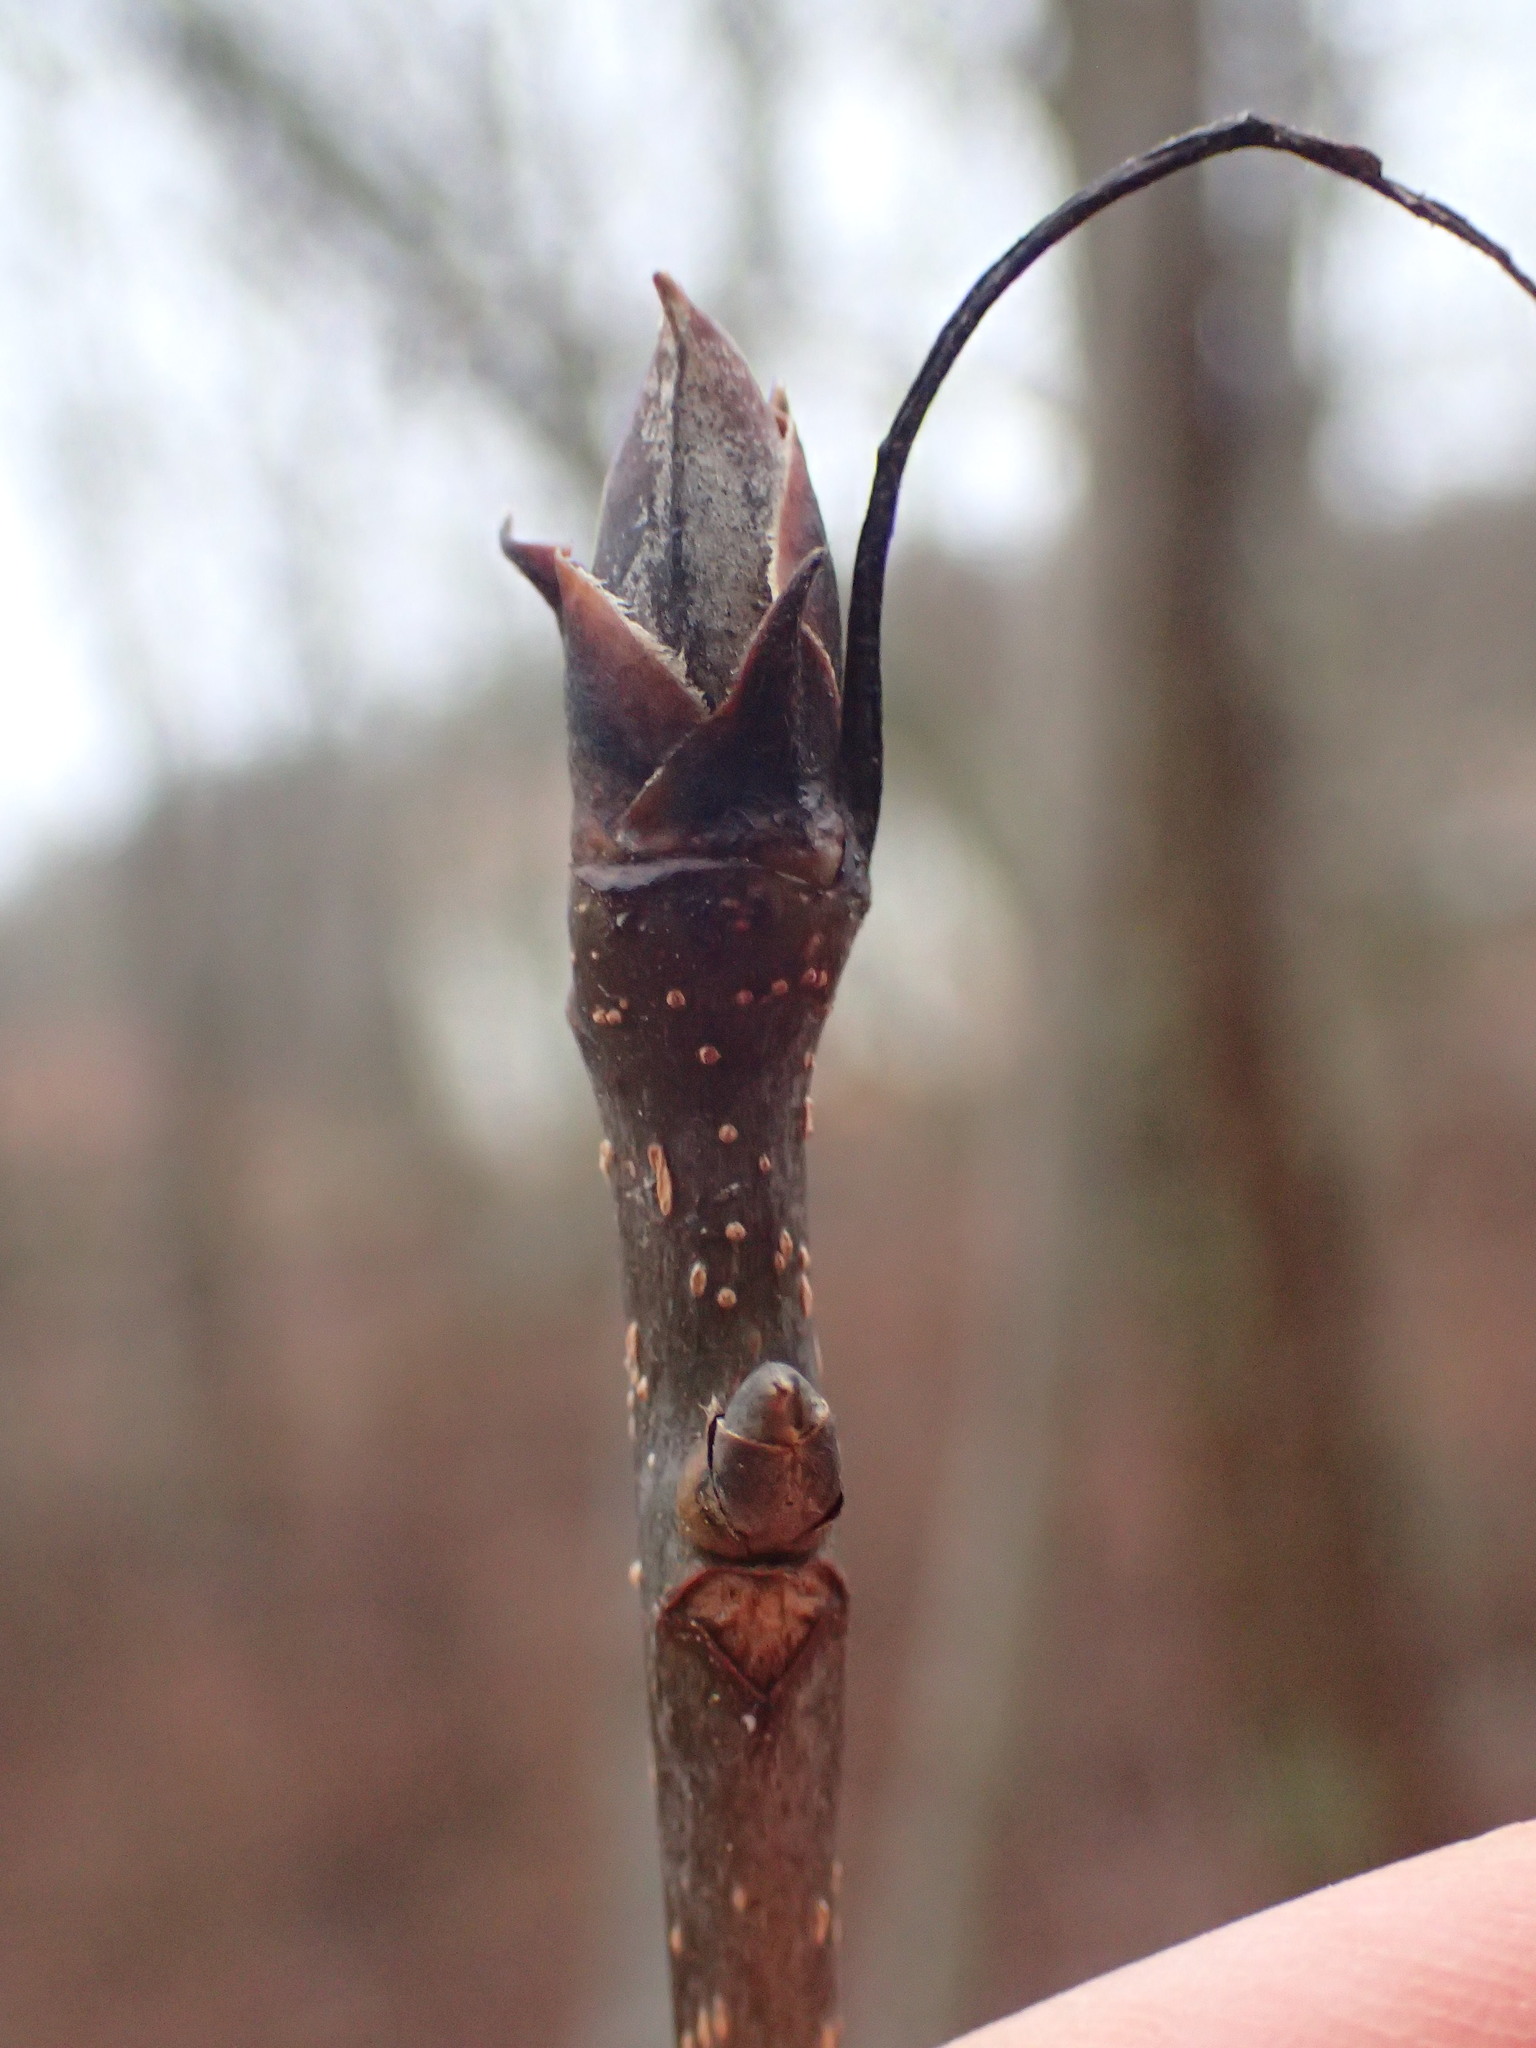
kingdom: Plantae
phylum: Tracheophyta
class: Magnoliopsida
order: Fagales
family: Juglandaceae
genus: Carya
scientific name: Carya ovata
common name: Shagbark hickory
